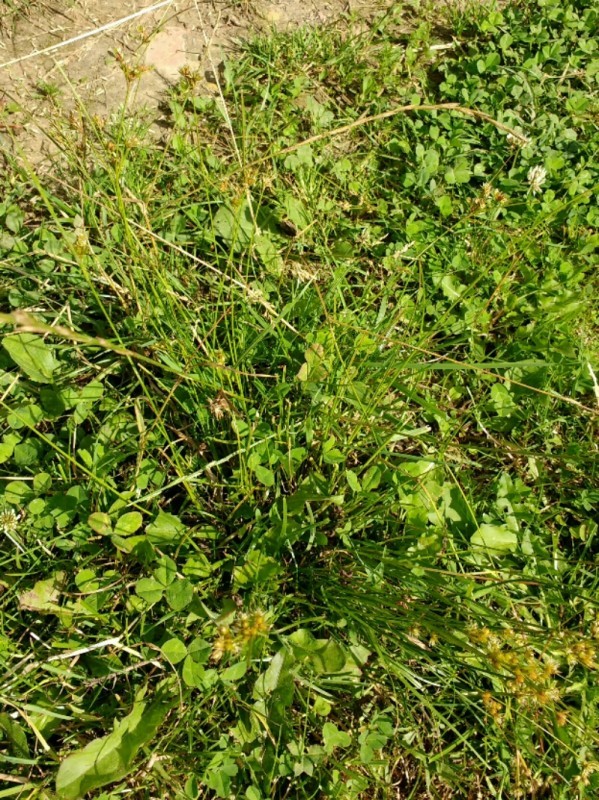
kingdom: Plantae
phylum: Tracheophyta
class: Liliopsida
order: Poales
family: Juncaceae
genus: Juncus
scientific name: Juncus tenuis
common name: Slender rush
